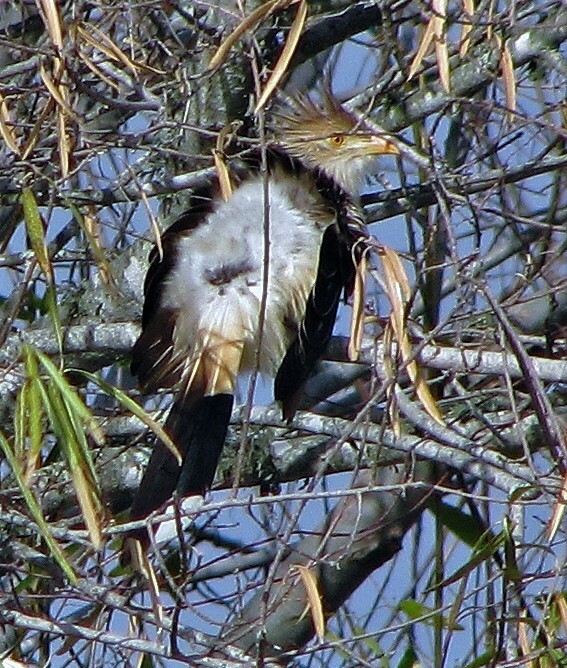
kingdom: Animalia
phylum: Chordata
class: Aves
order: Cuculiformes
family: Cuculidae
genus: Guira
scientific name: Guira guira
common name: Guira cuckoo
